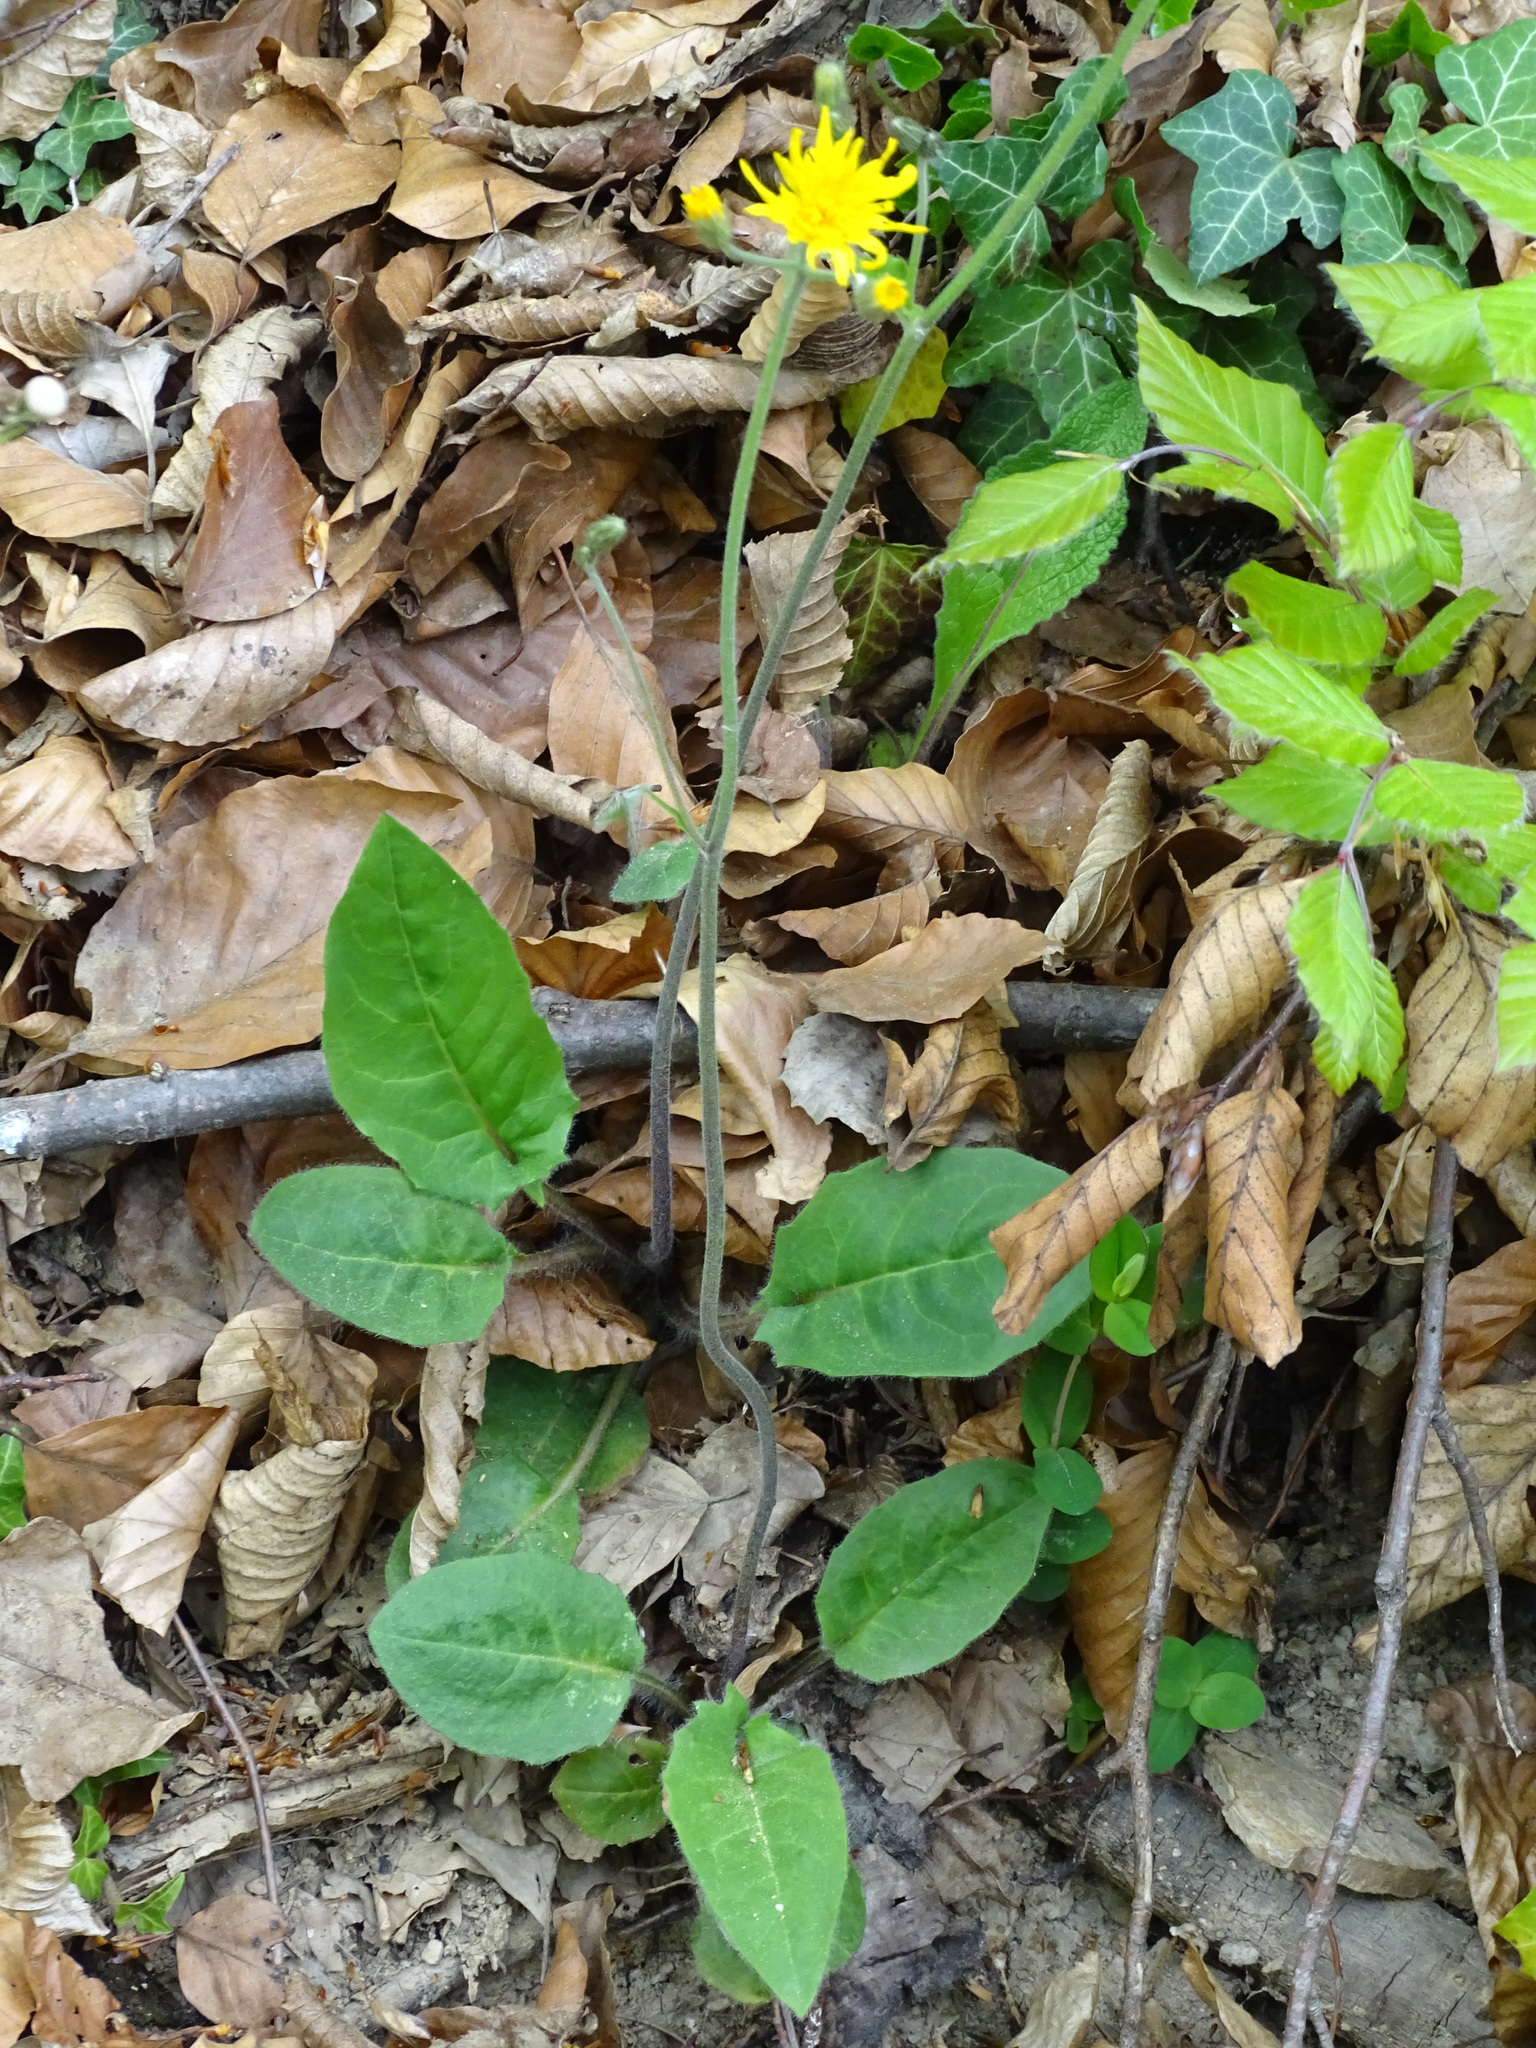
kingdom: Plantae
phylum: Tracheophyta
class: Magnoliopsida
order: Asterales
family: Asteraceae
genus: Hieracium
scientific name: Hieracium murorum
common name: Wall hawkweed
